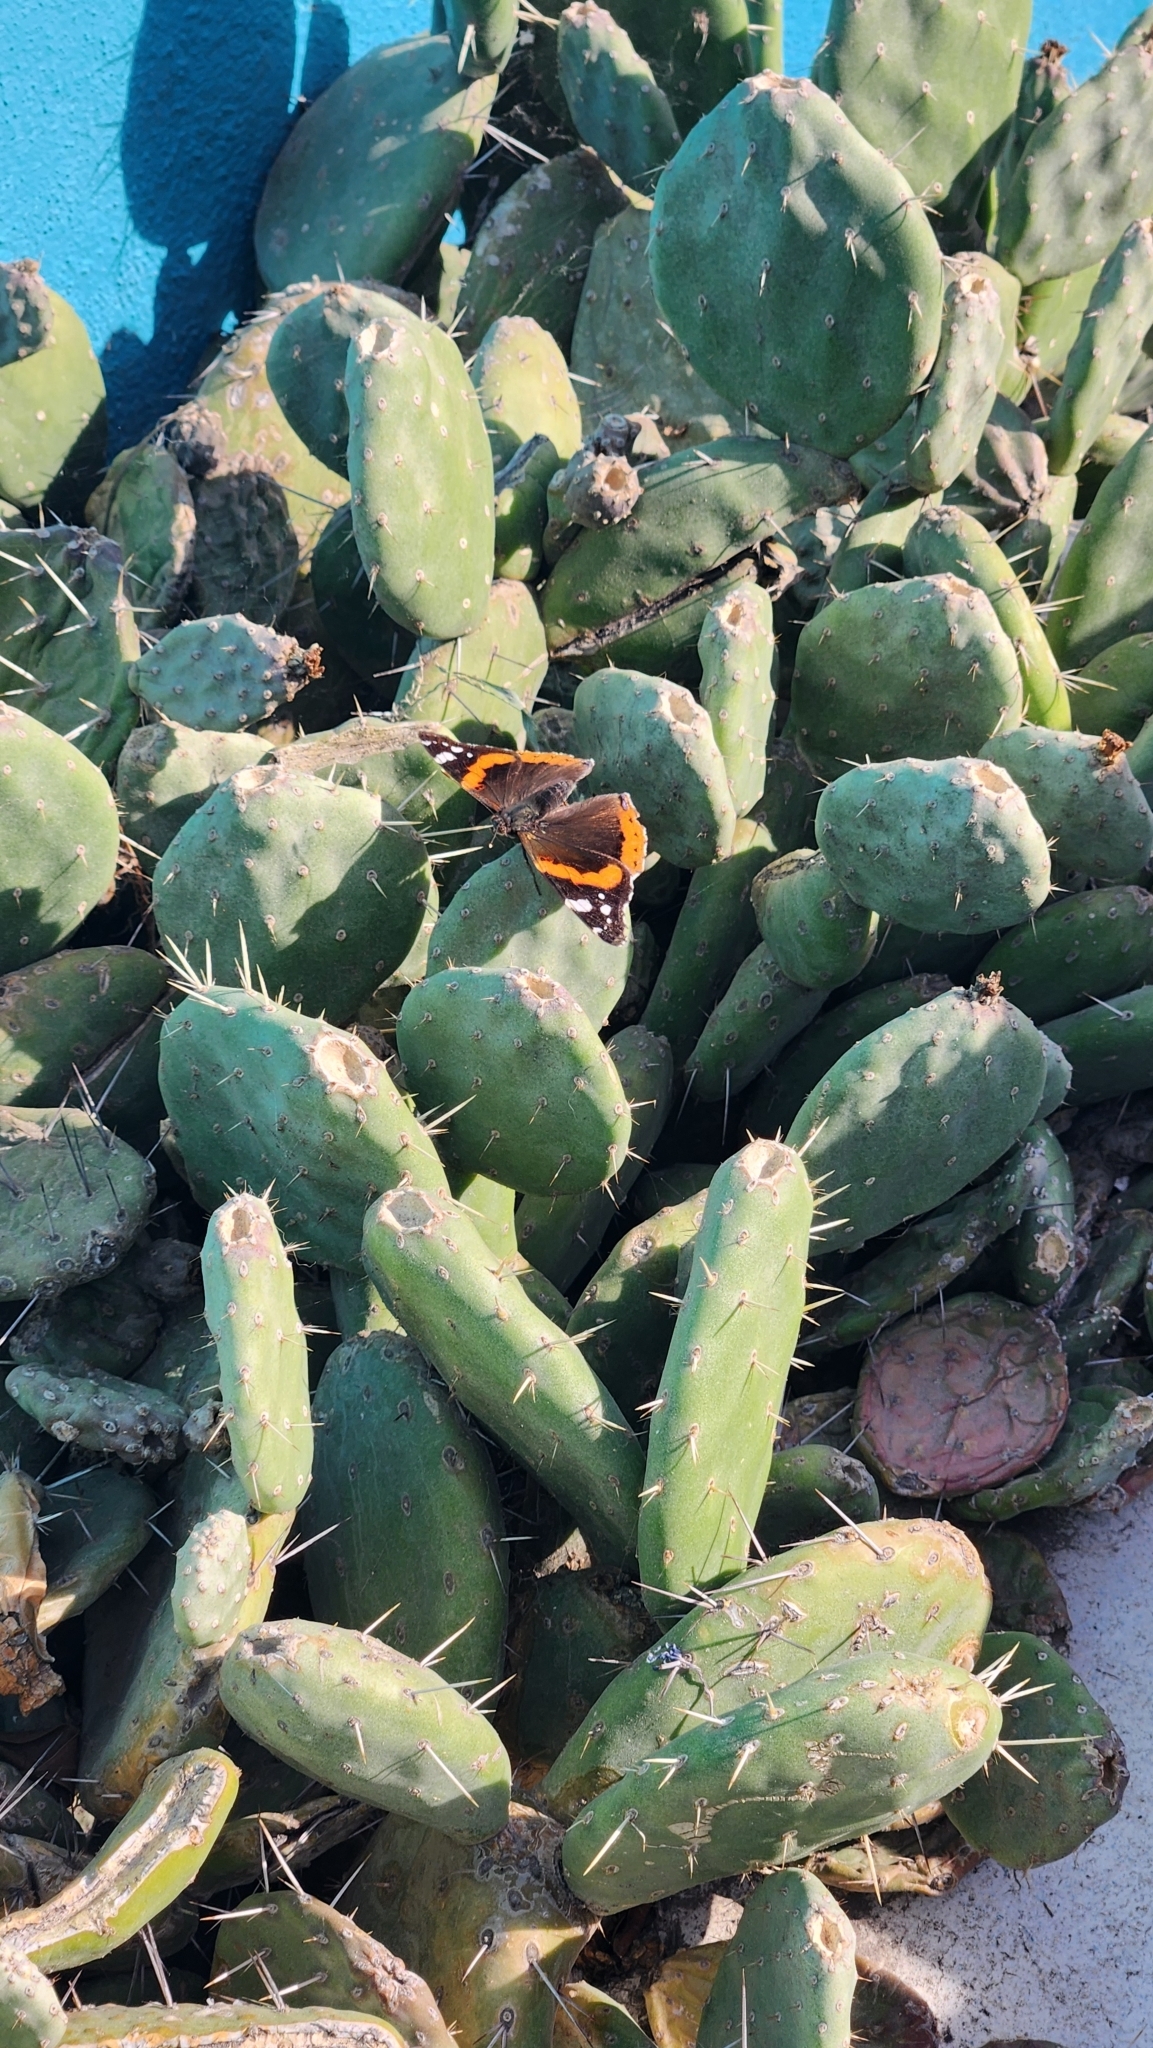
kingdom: Animalia
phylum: Arthropoda
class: Insecta
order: Lepidoptera
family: Nymphalidae
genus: Vanessa
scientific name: Vanessa atalanta
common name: Red admiral
